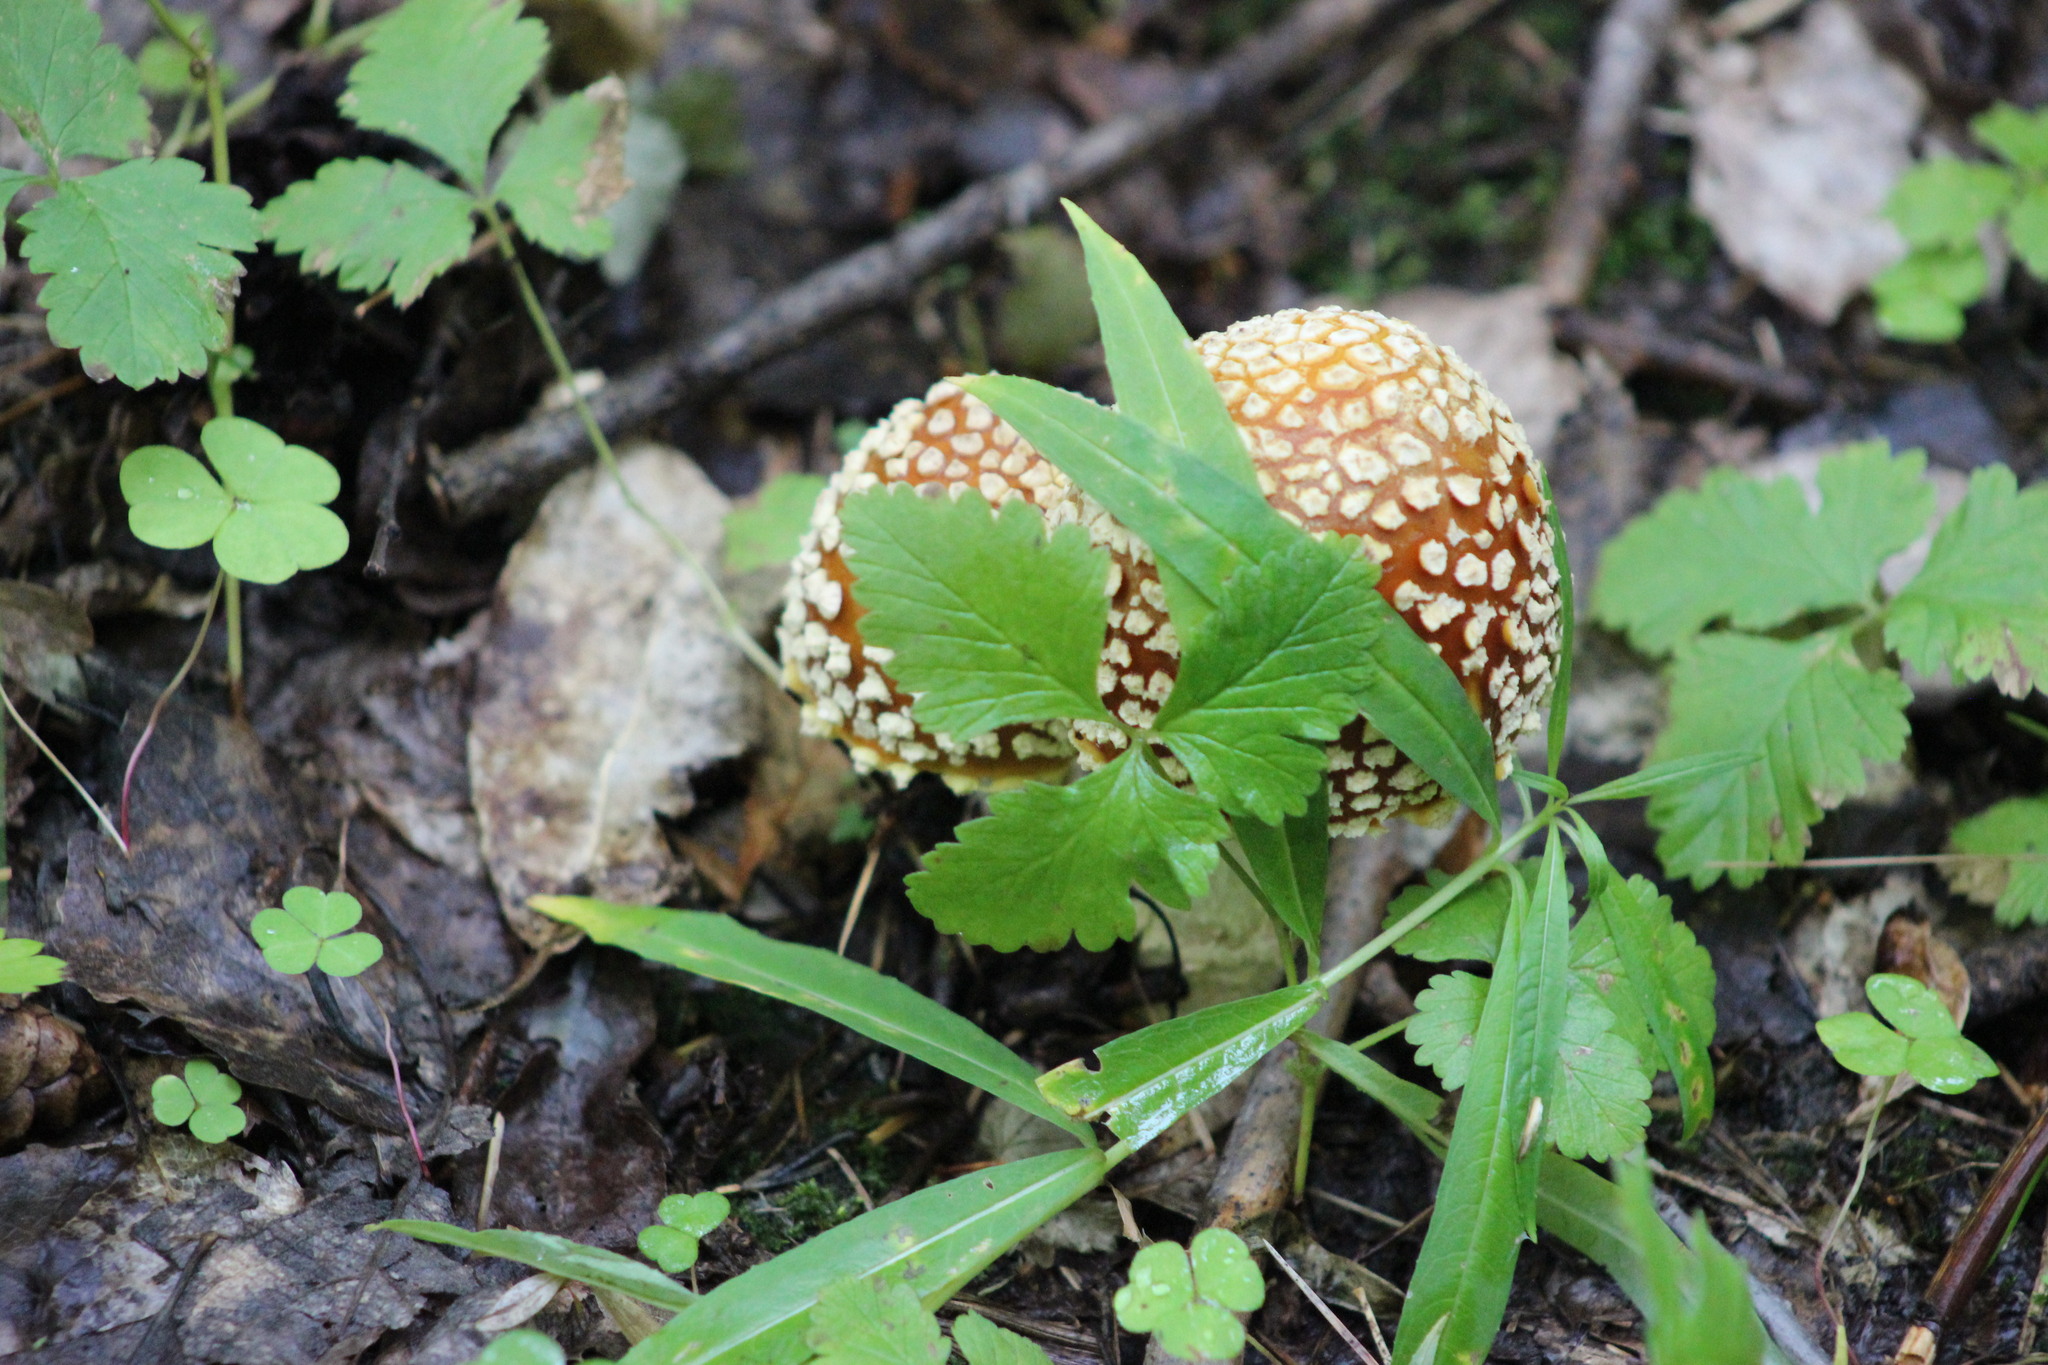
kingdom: Fungi
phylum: Basidiomycota
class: Agaricomycetes
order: Agaricales
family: Amanitaceae
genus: Amanita
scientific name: Amanita regalis
